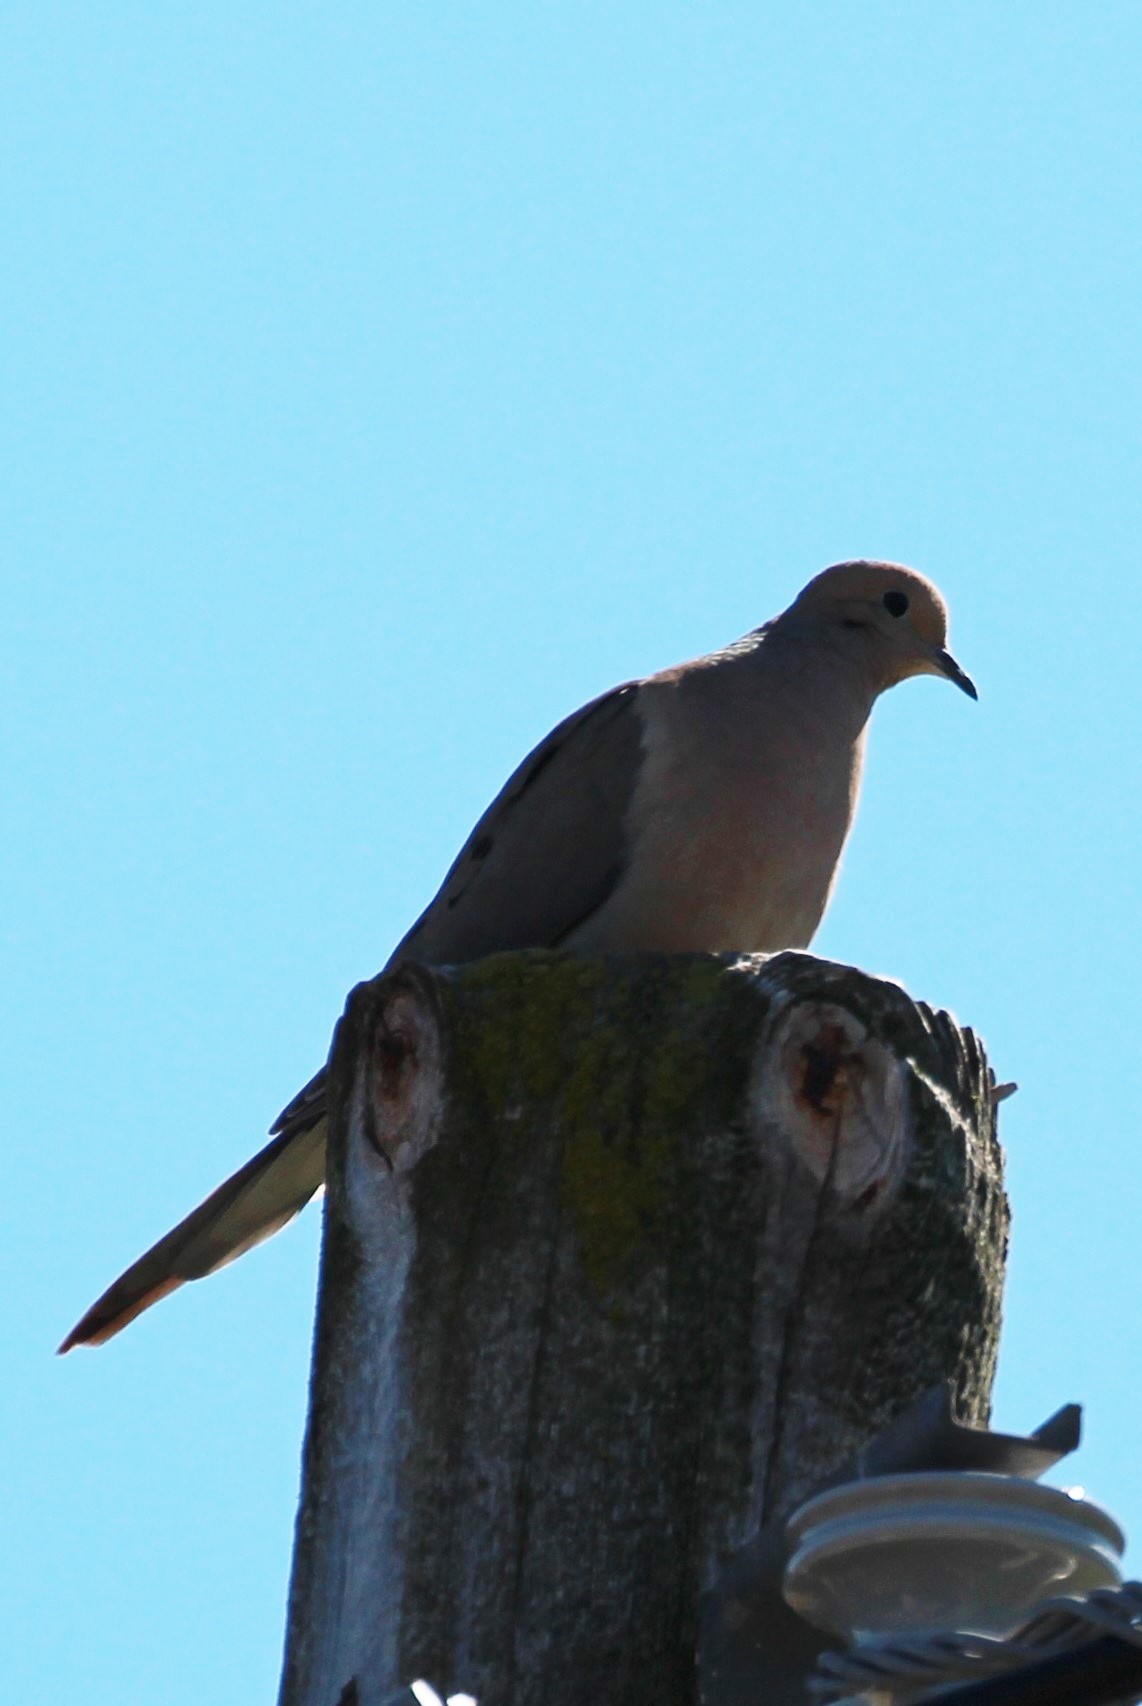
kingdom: Animalia
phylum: Chordata
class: Aves
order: Columbiformes
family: Columbidae
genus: Zenaida
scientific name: Zenaida macroura
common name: Mourning dove
